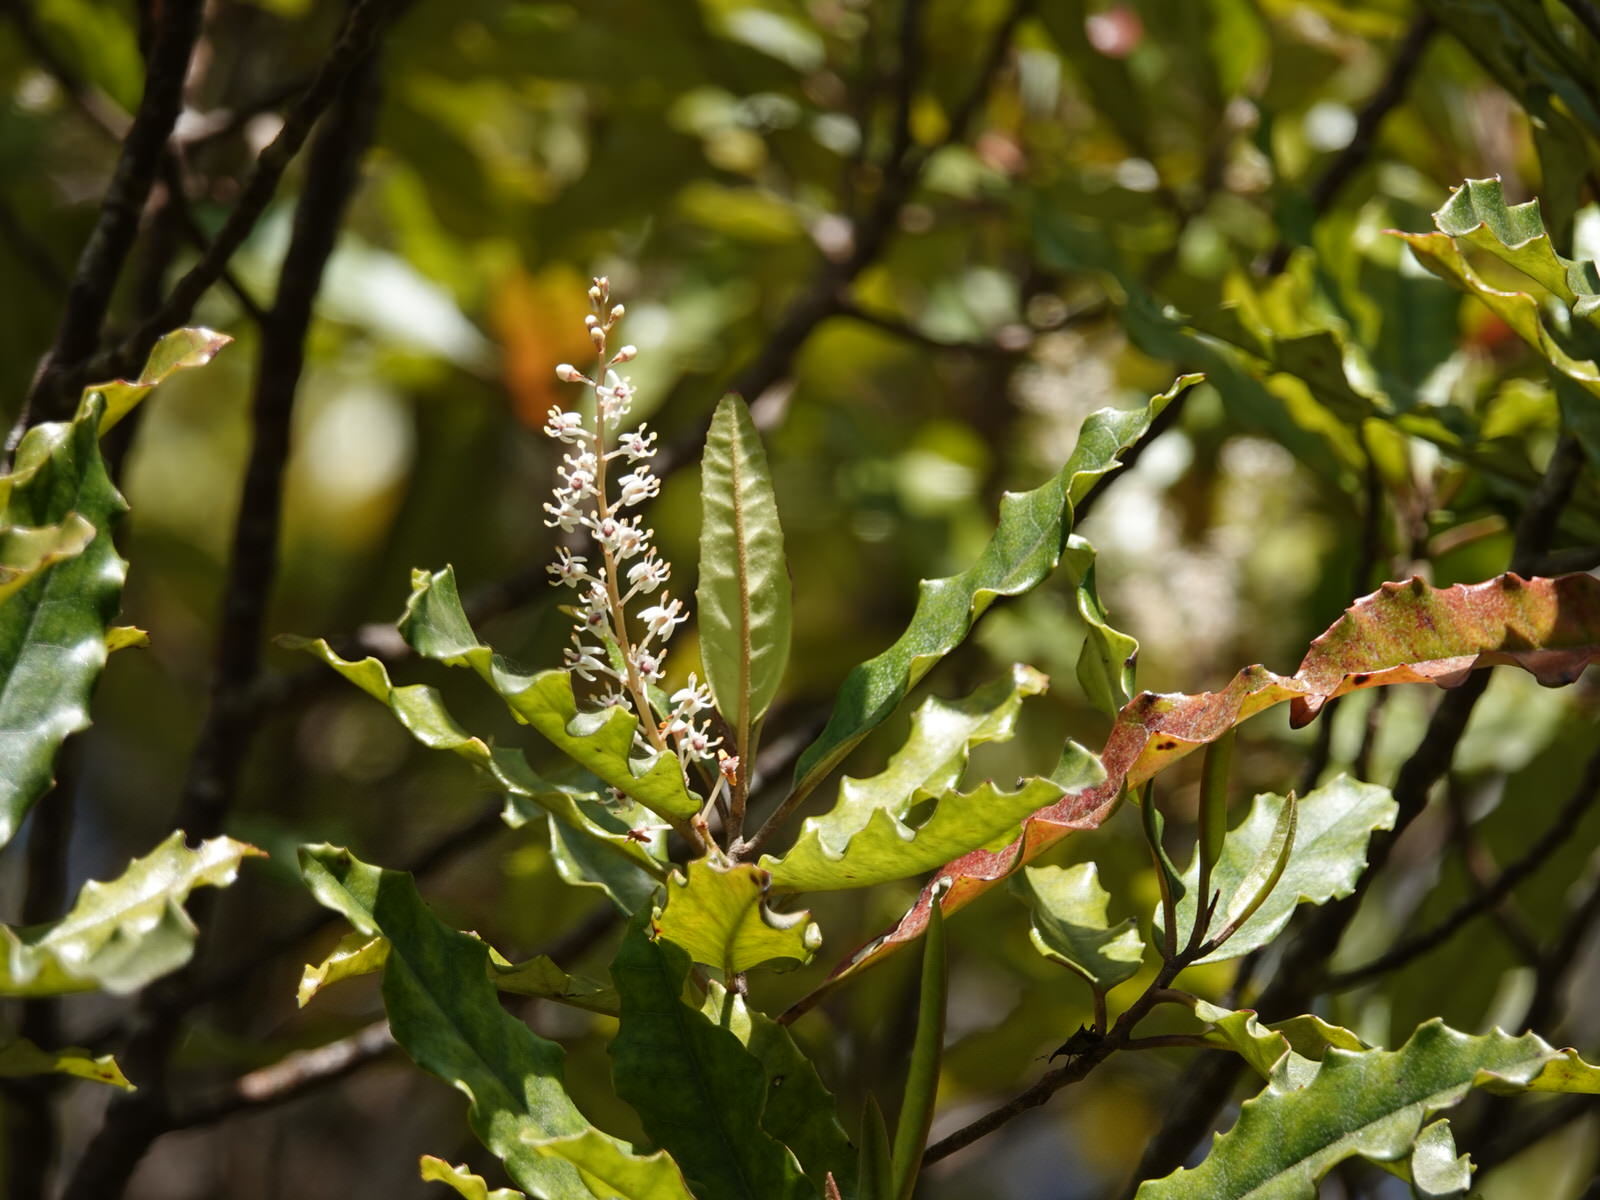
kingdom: Plantae
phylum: Tracheophyta
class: Magnoliopsida
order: Paracryphiales
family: Paracryphiaceae
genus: Quintinia
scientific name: Quintinia serrata
